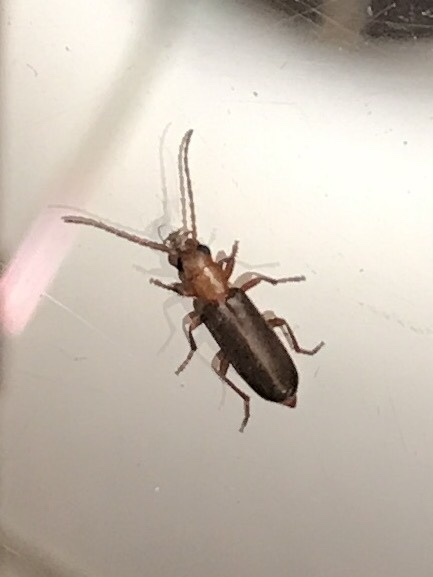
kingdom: Animalia
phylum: Arthropoda
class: Insecta
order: Coleoptera
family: Oedemeridae
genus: Xanthochroina
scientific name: Xanthochroina bicolor
